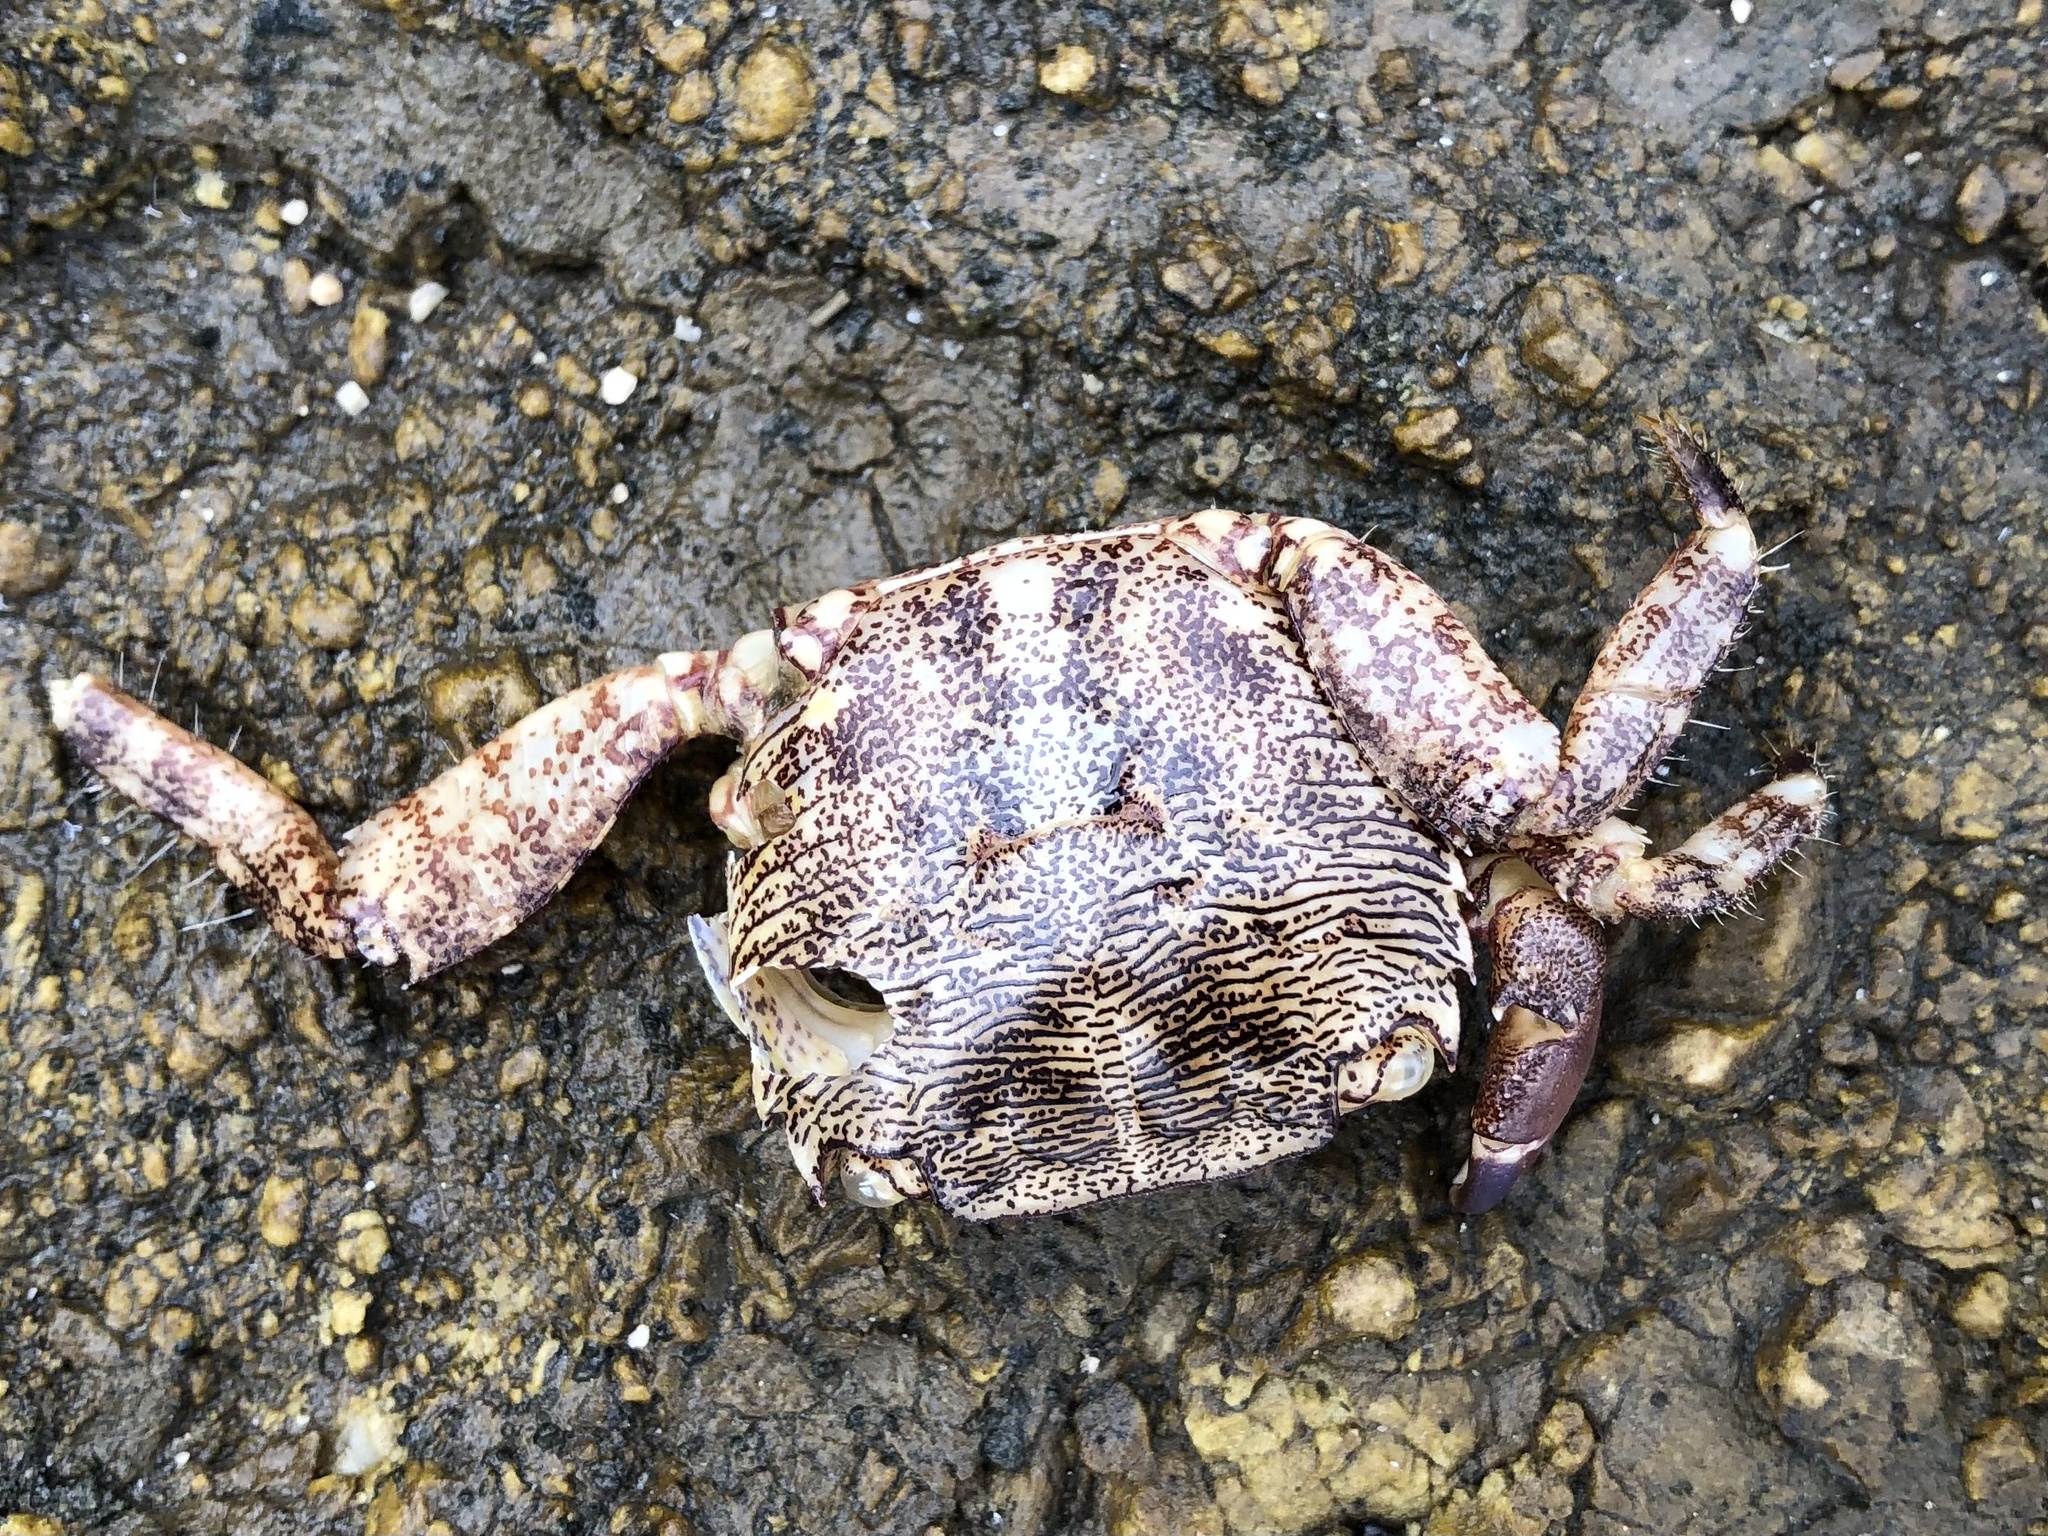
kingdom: Animalia
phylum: Arthropoda
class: Malacostraca
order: Decapoda
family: Grapsidae
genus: Pachygrapsus
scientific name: Pachygrapsus marmoratus
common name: Marbled rock crab
